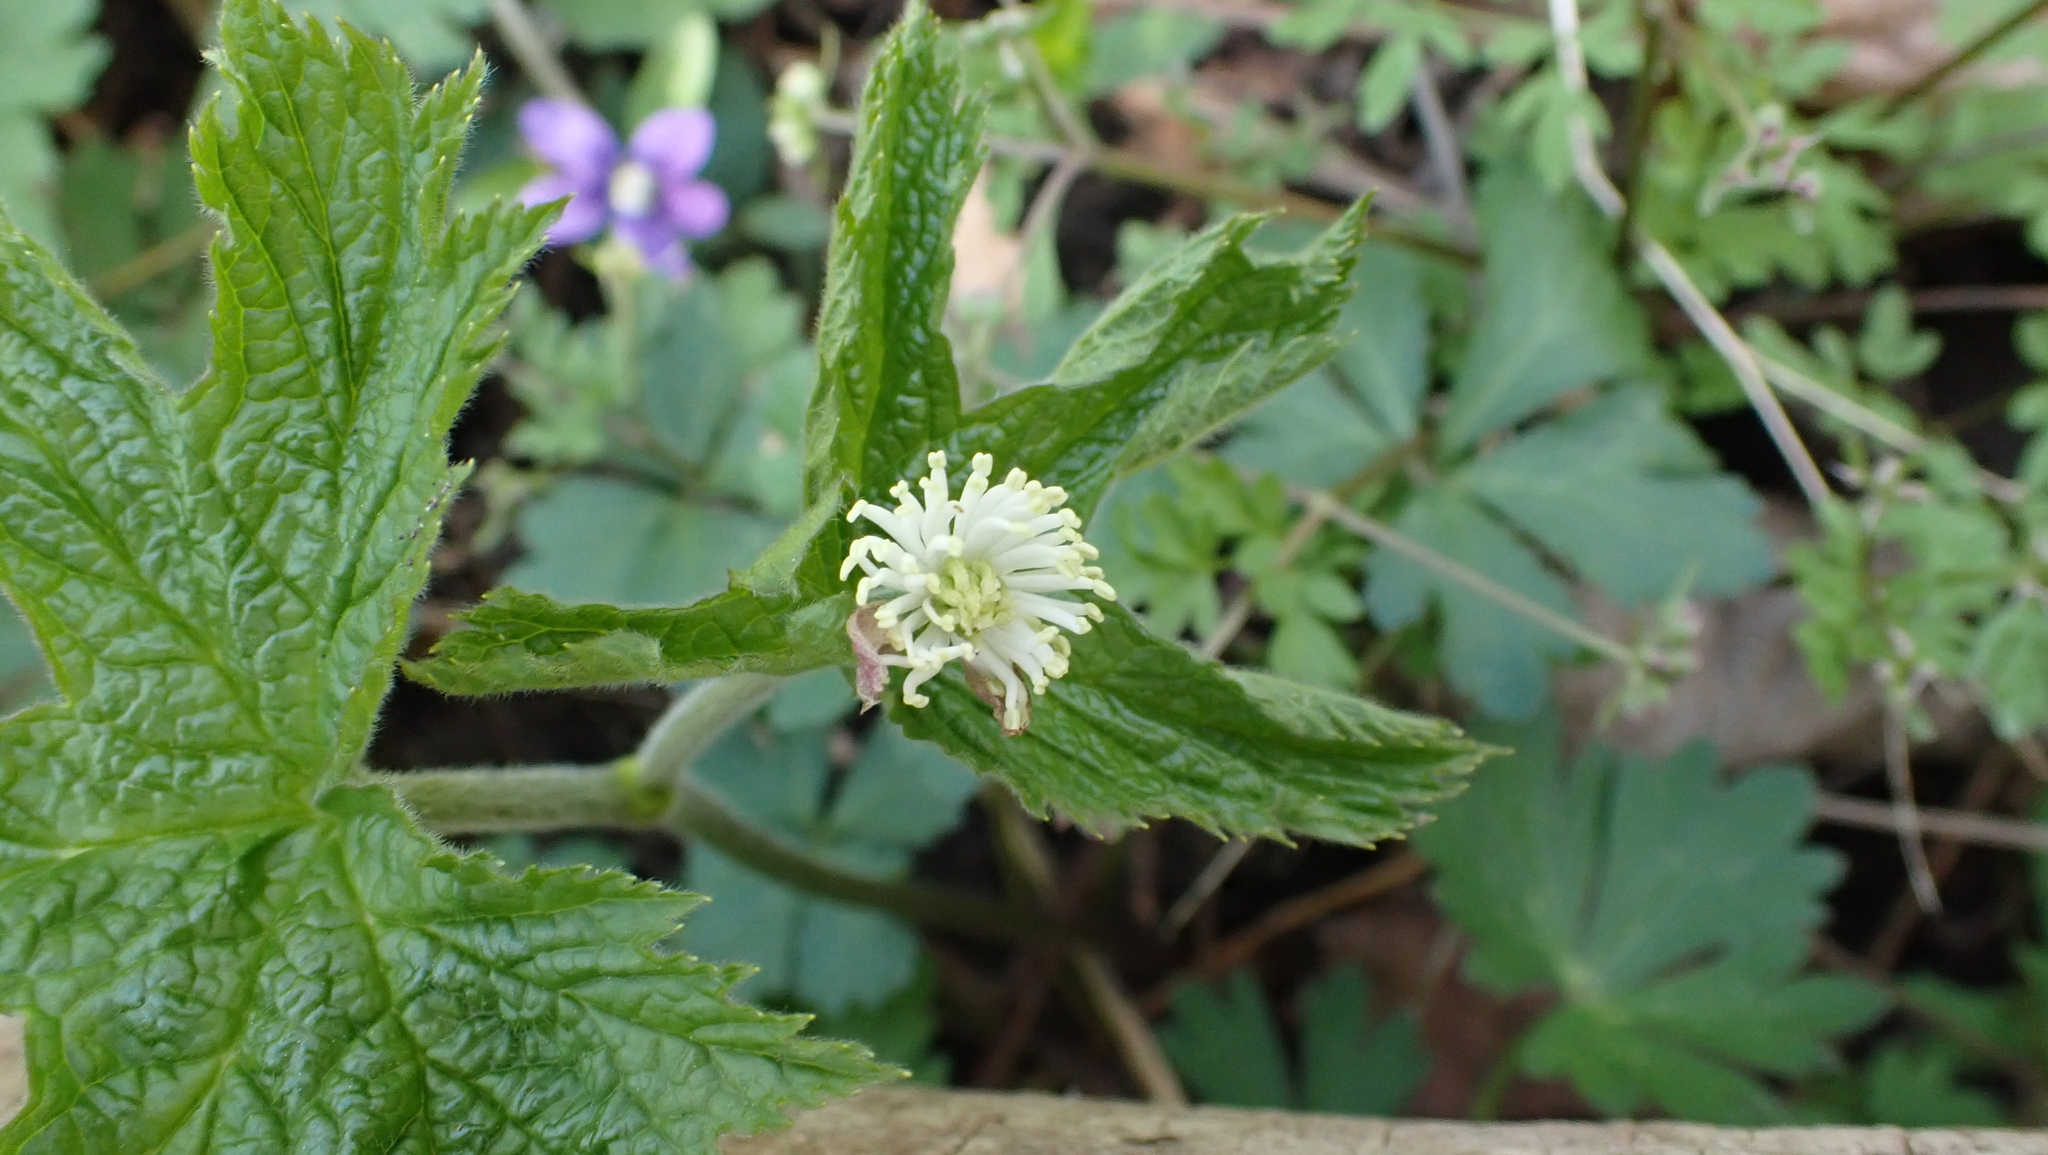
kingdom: Plantae
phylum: Tracheophyta
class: Magnoliopsida
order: Ranunculales
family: Ranunculaceae
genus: Hydrastis
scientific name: Hydrastis canadensis
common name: Goldenseal
